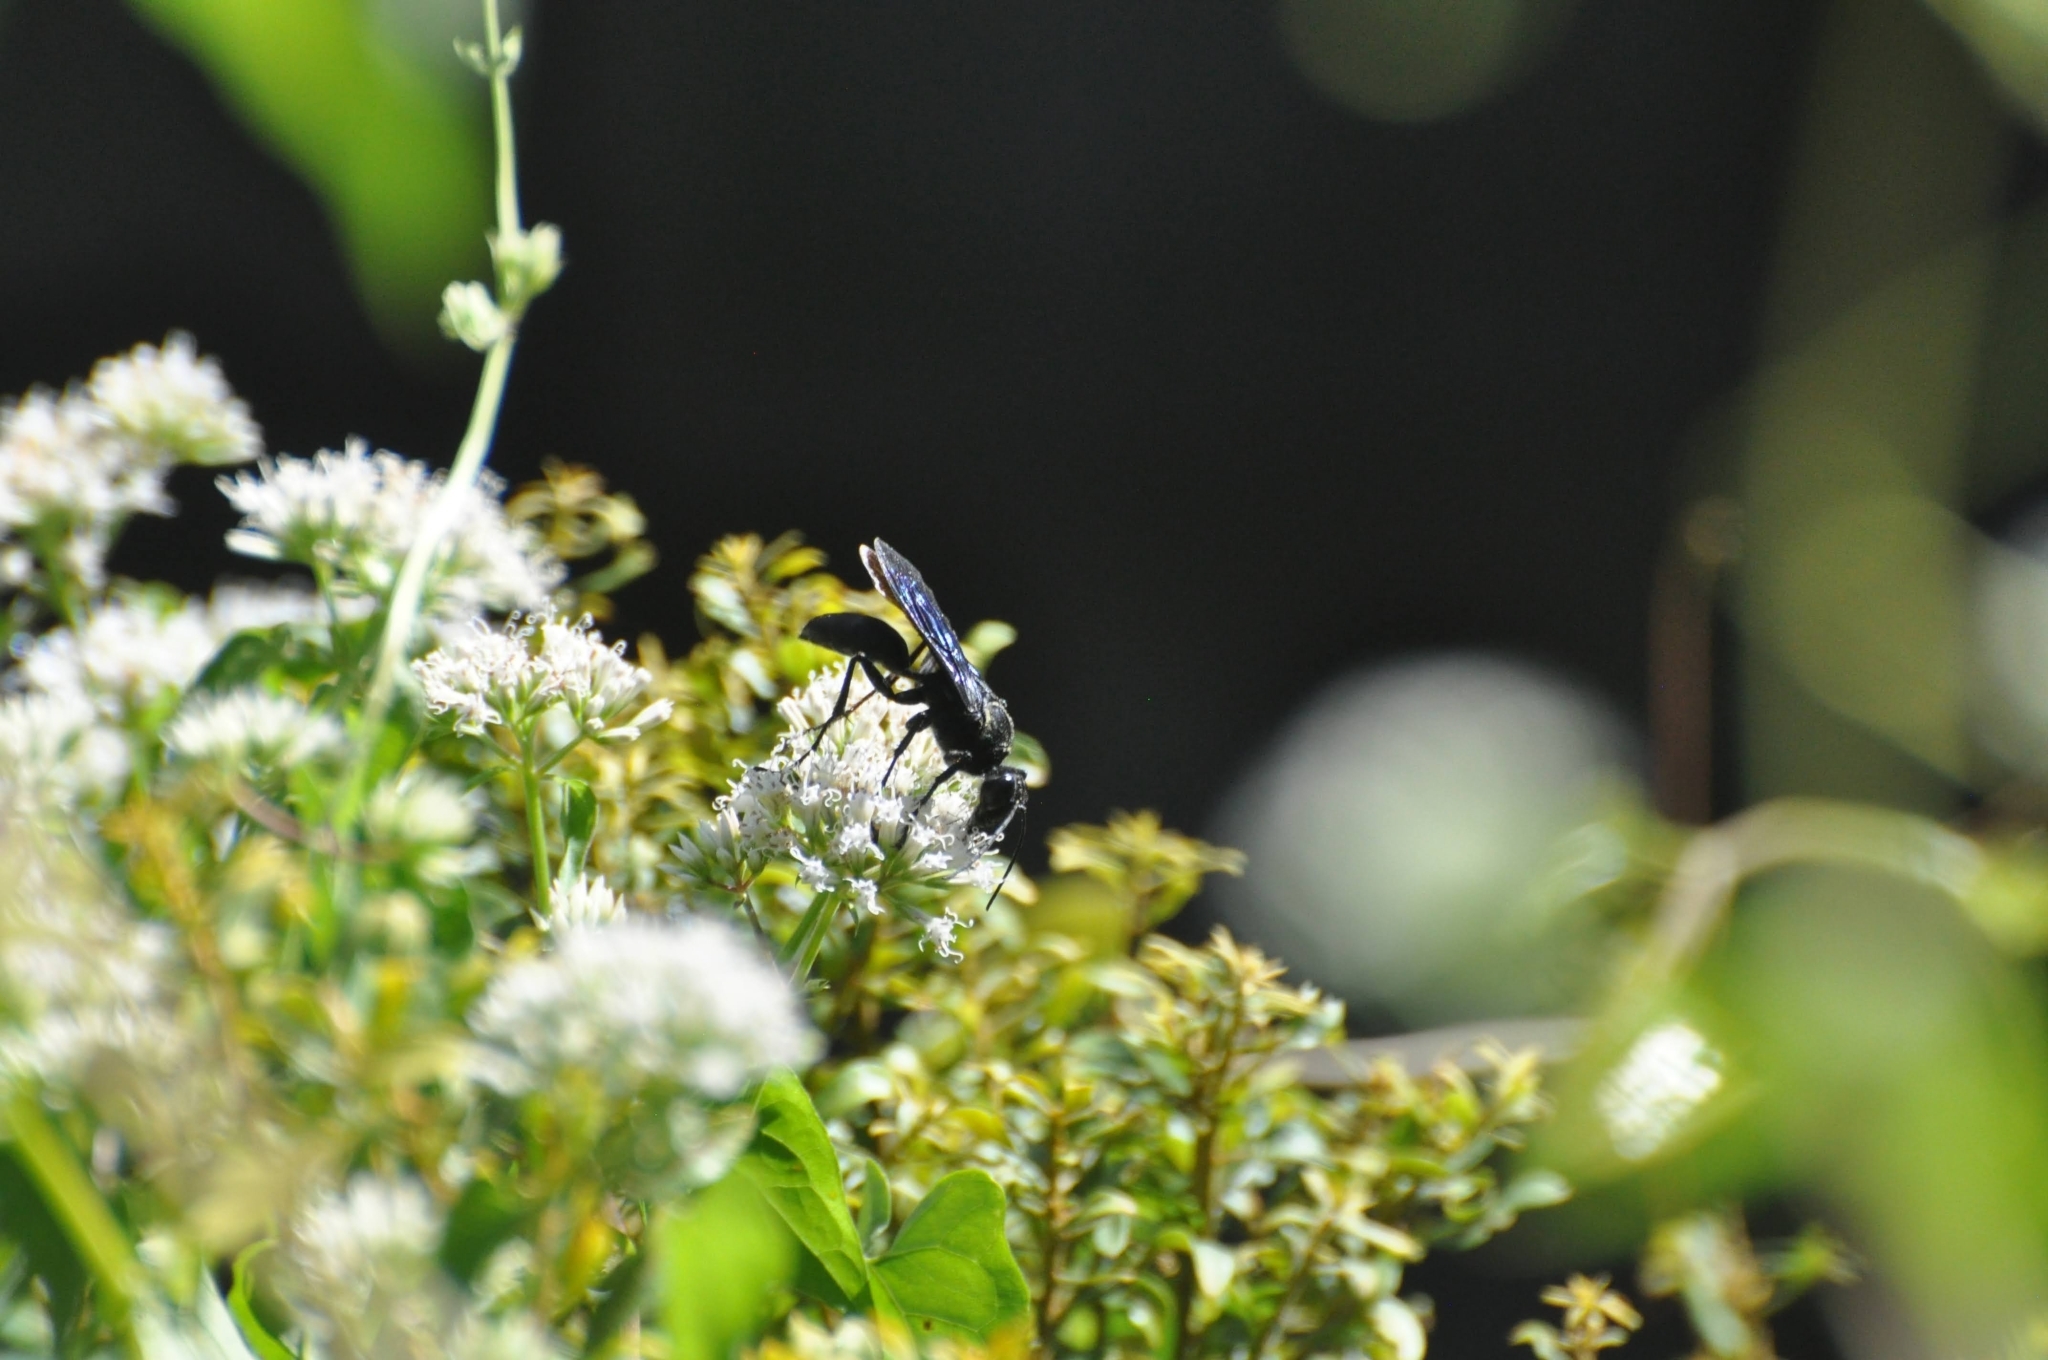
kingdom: Animalia
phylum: Arthropoda
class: Insecta
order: Hymenoptera
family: Sphecidae
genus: Sphex
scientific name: Sphex pensylvanicus
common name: Great black digger wasp
